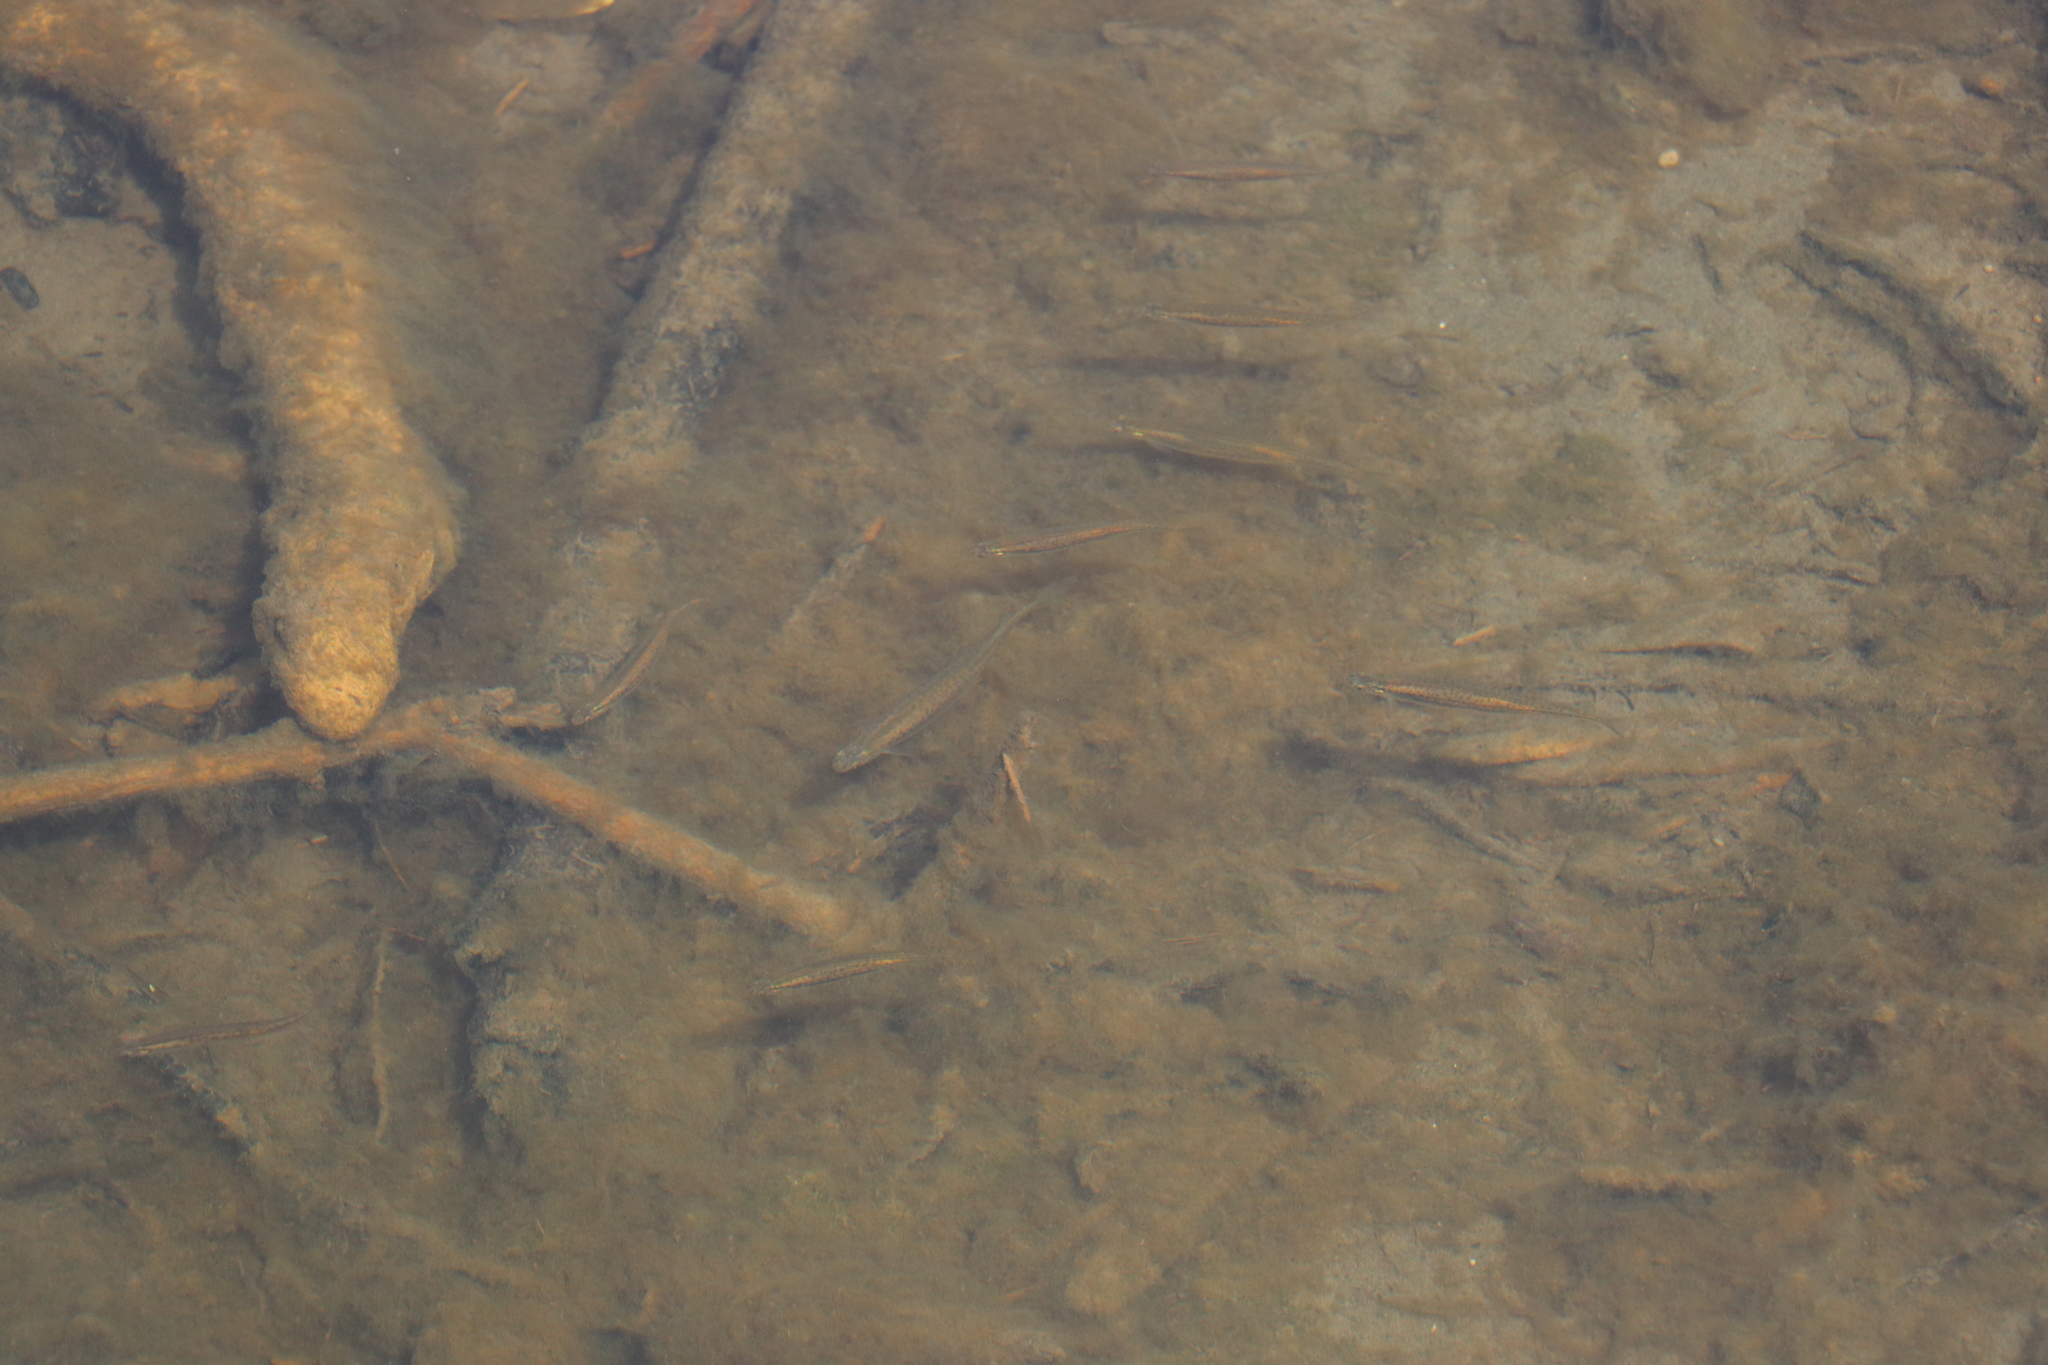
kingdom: Animalia
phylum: Chordata
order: Osmeriformes
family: Galaxiidae
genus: Galaxias
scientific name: Galaxias maculatus
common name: Common galaxias
